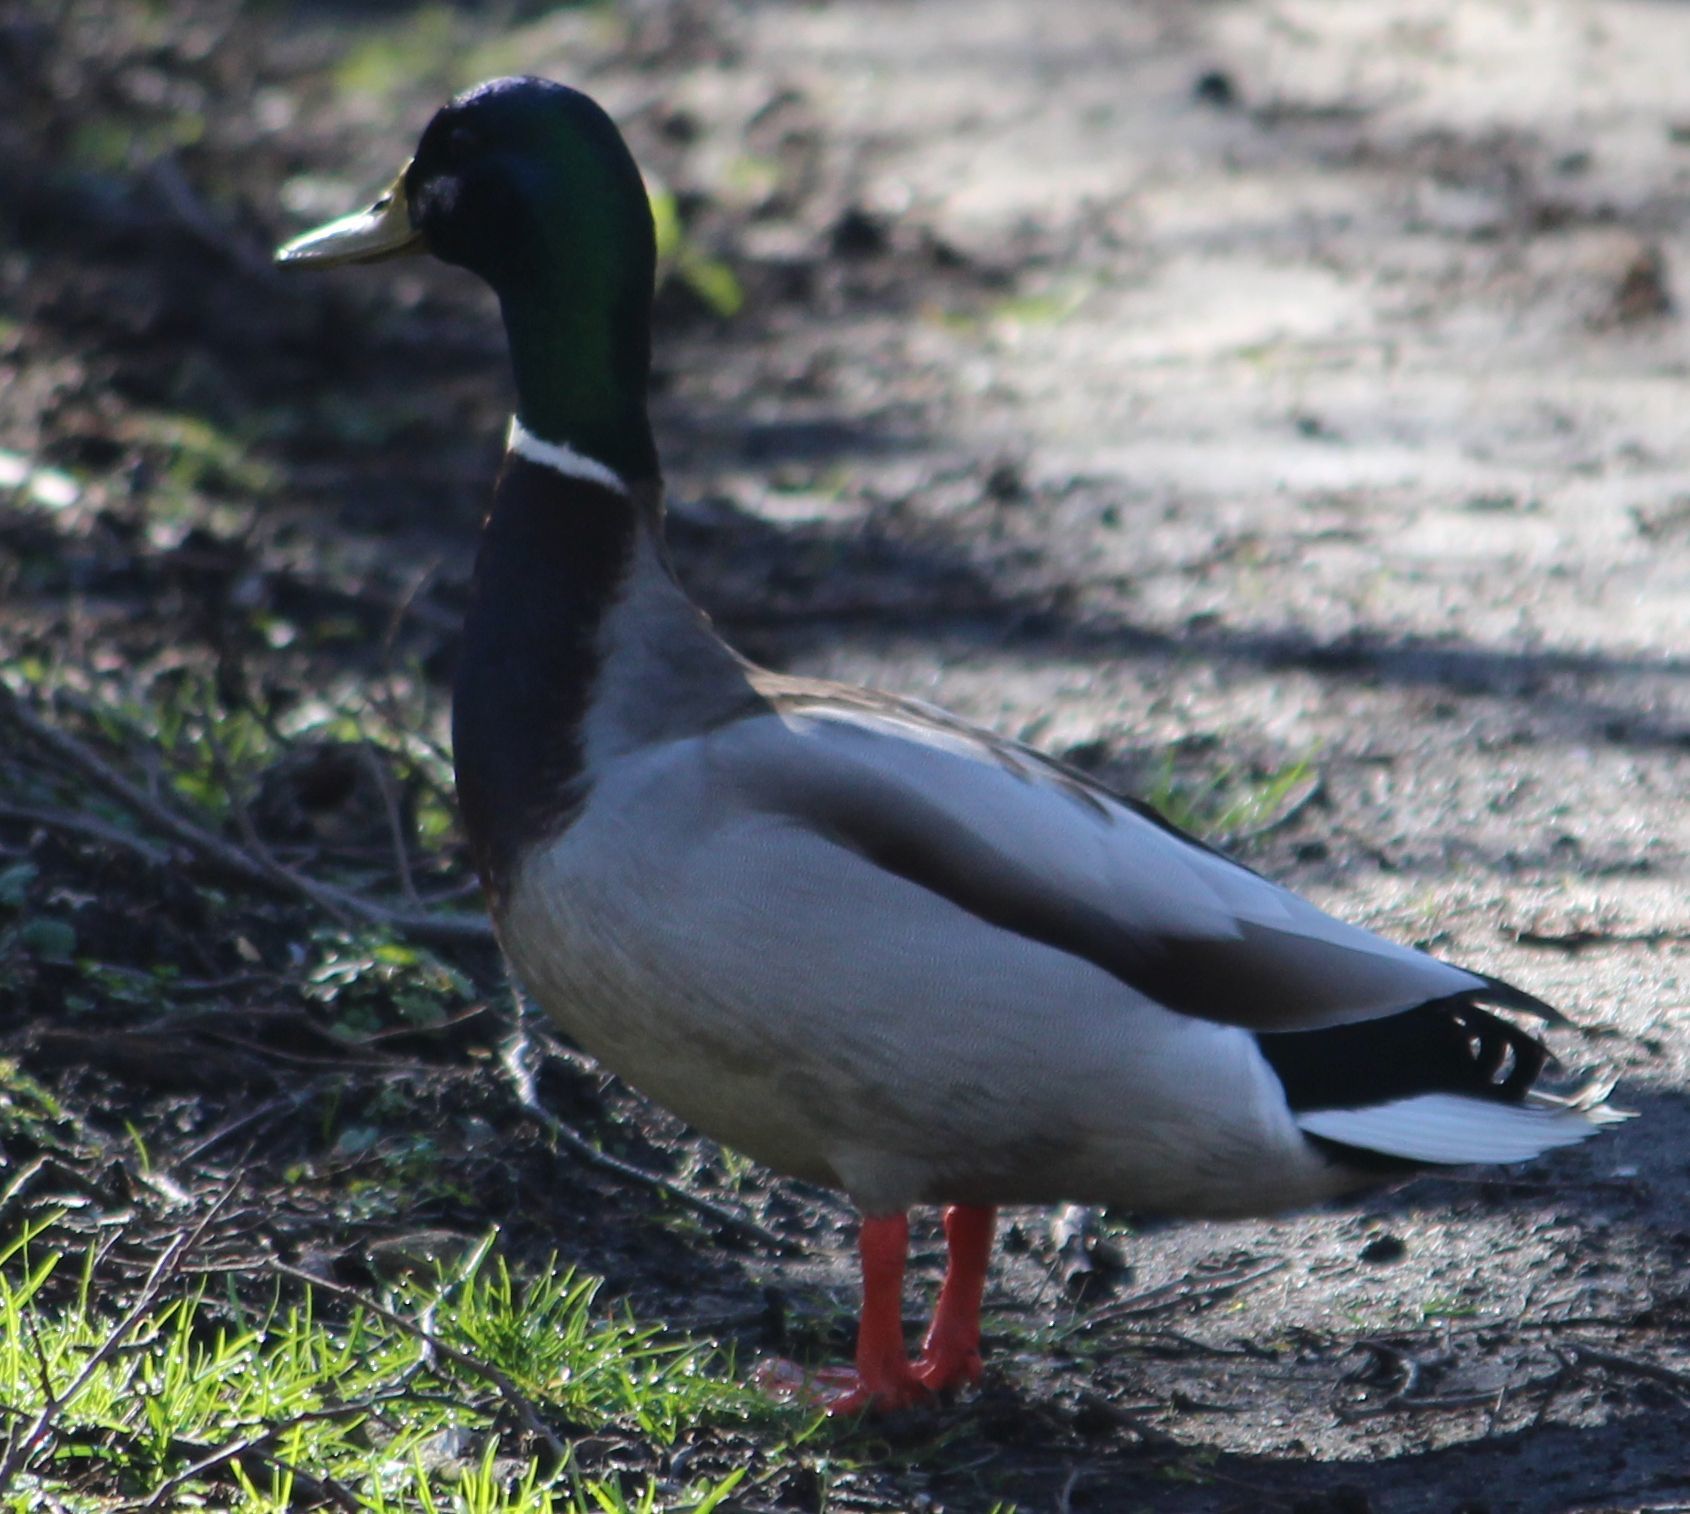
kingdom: Animalia
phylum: Chordata
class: Aves
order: Anseriformes
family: Anatidae
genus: Anas
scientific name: Anas platyrhynchos
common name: Mallard
